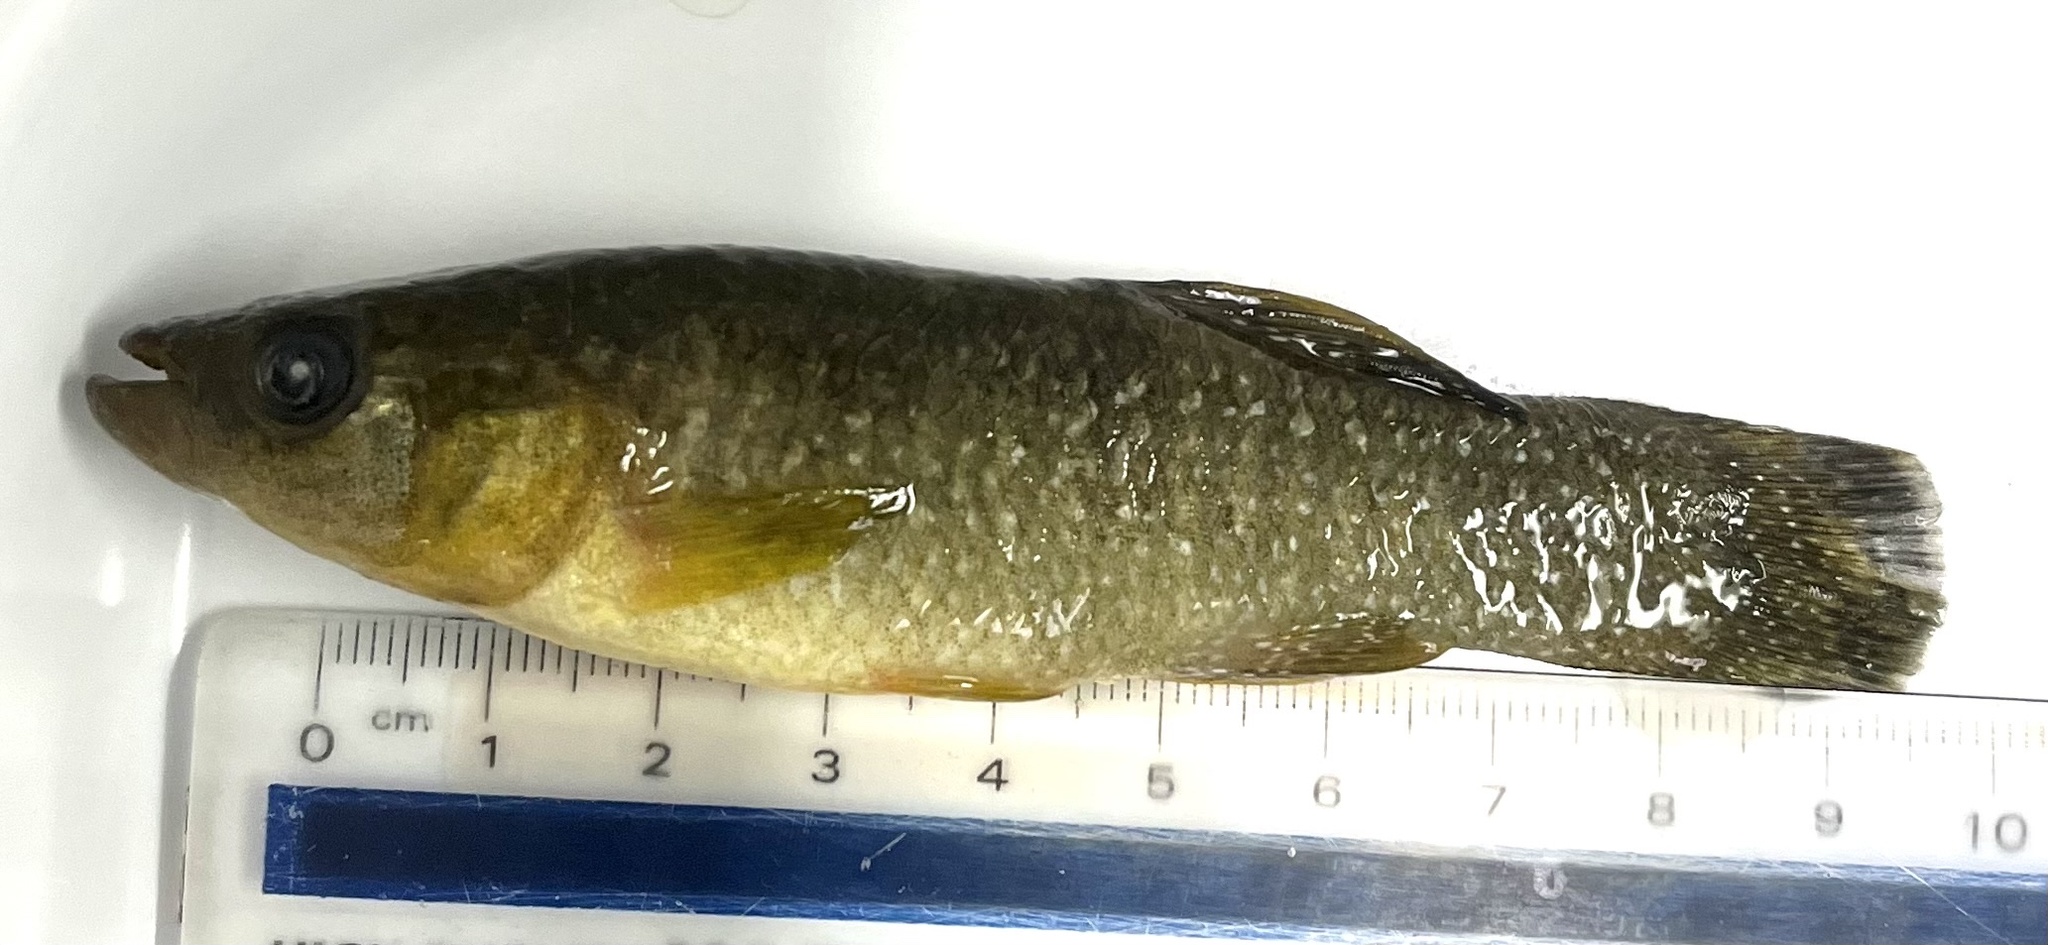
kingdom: Animalia
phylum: Chordata
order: Cyprinodontiformes
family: Fundulidae
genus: Fundulus
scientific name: Fundulus grandis
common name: Gulf killifish
